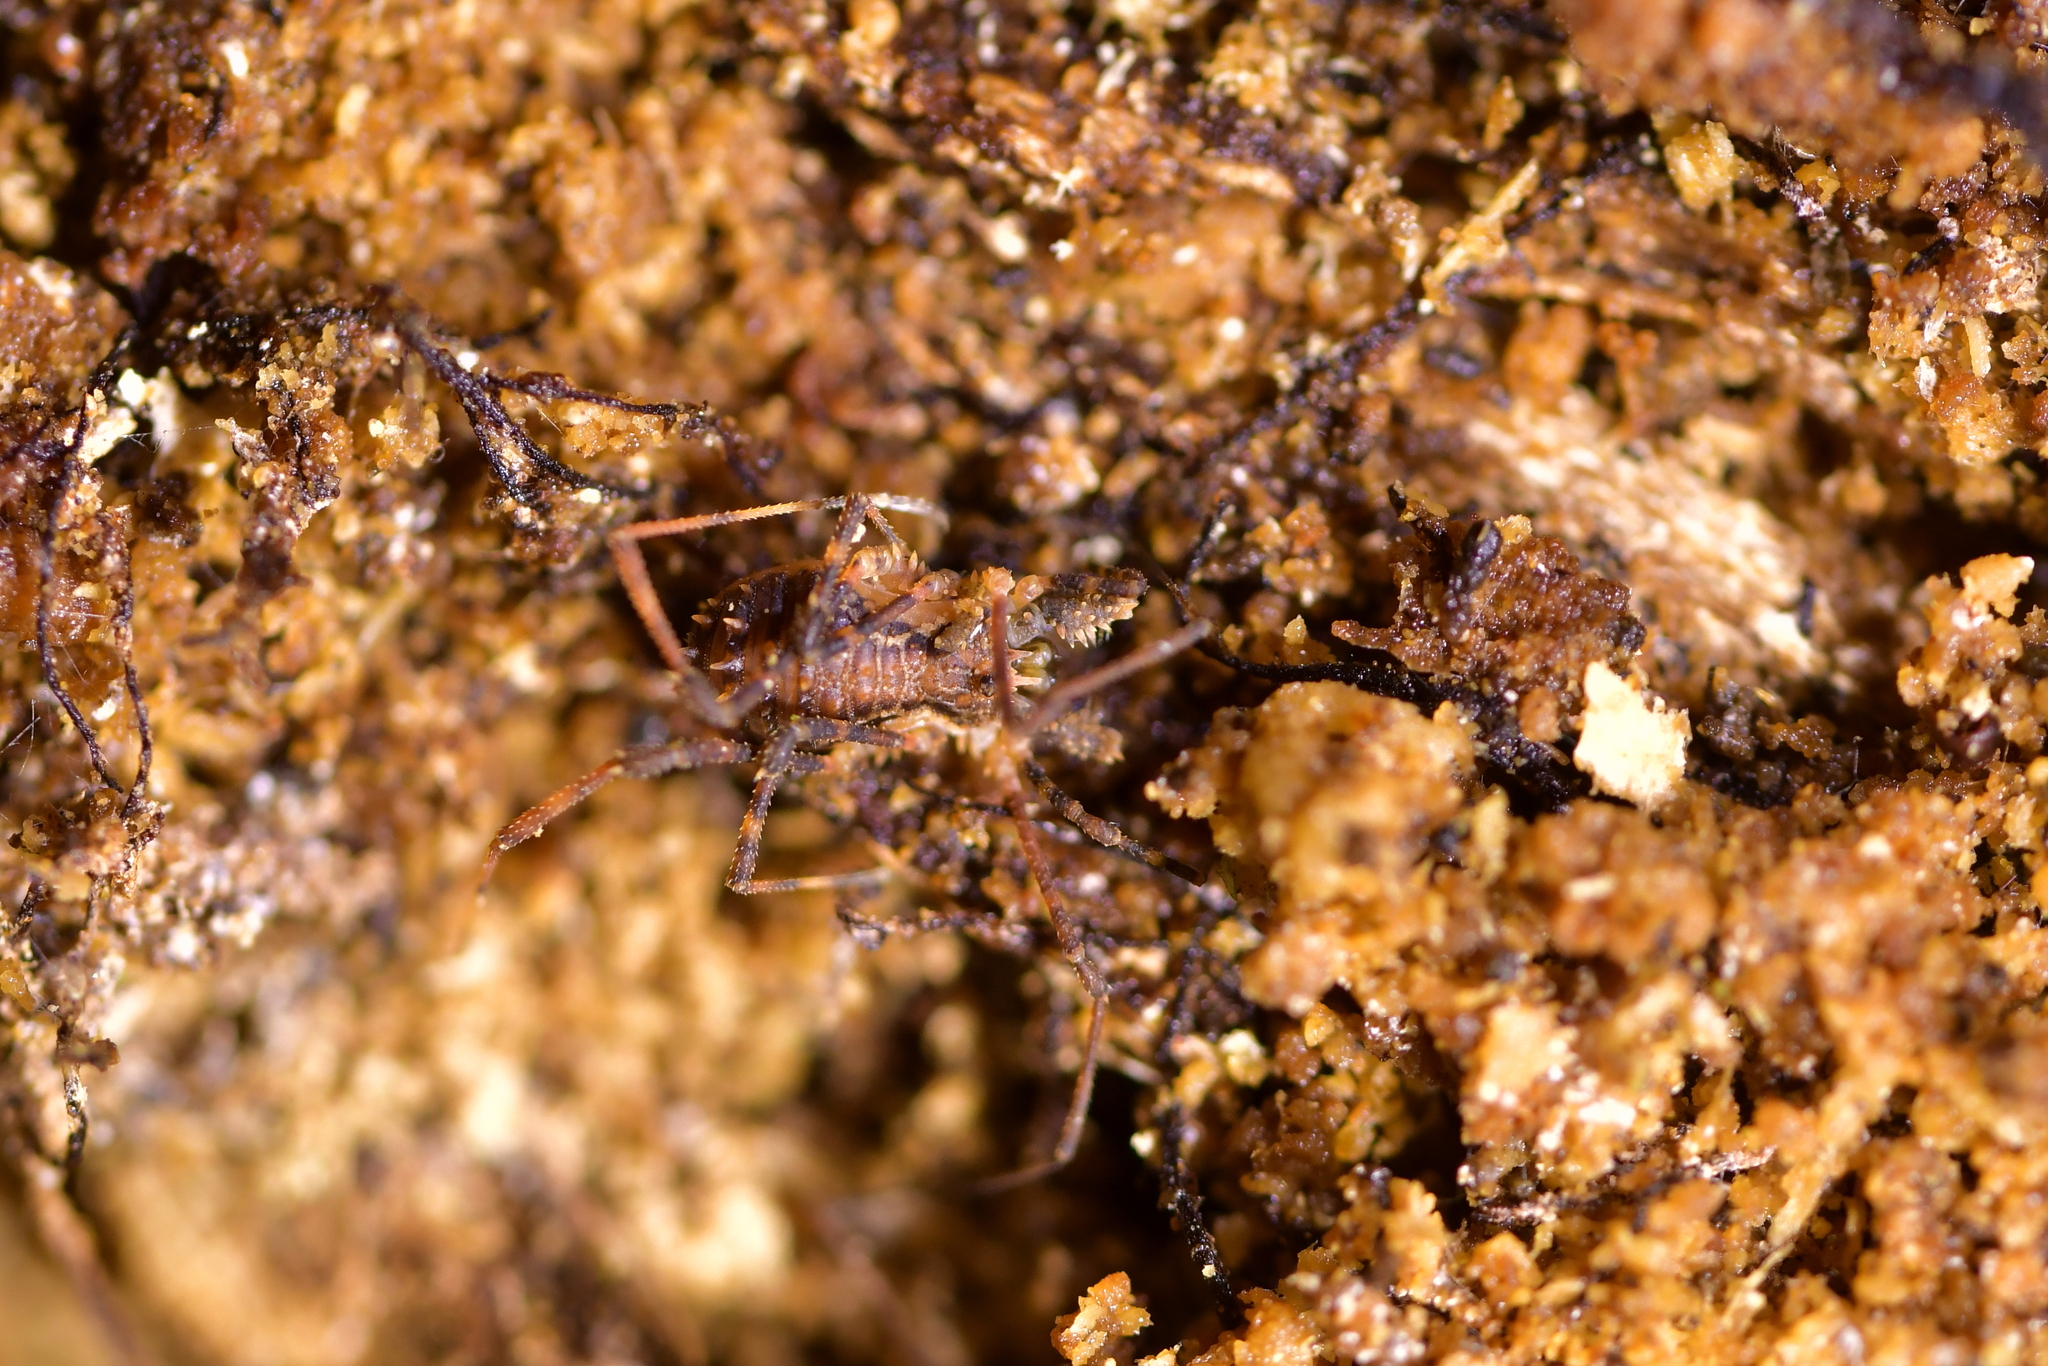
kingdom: Animalia
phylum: Arthropoda
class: Arachnida
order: Opiliones
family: Triaenonychidae
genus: Algidia
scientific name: Algidia nigriflava
